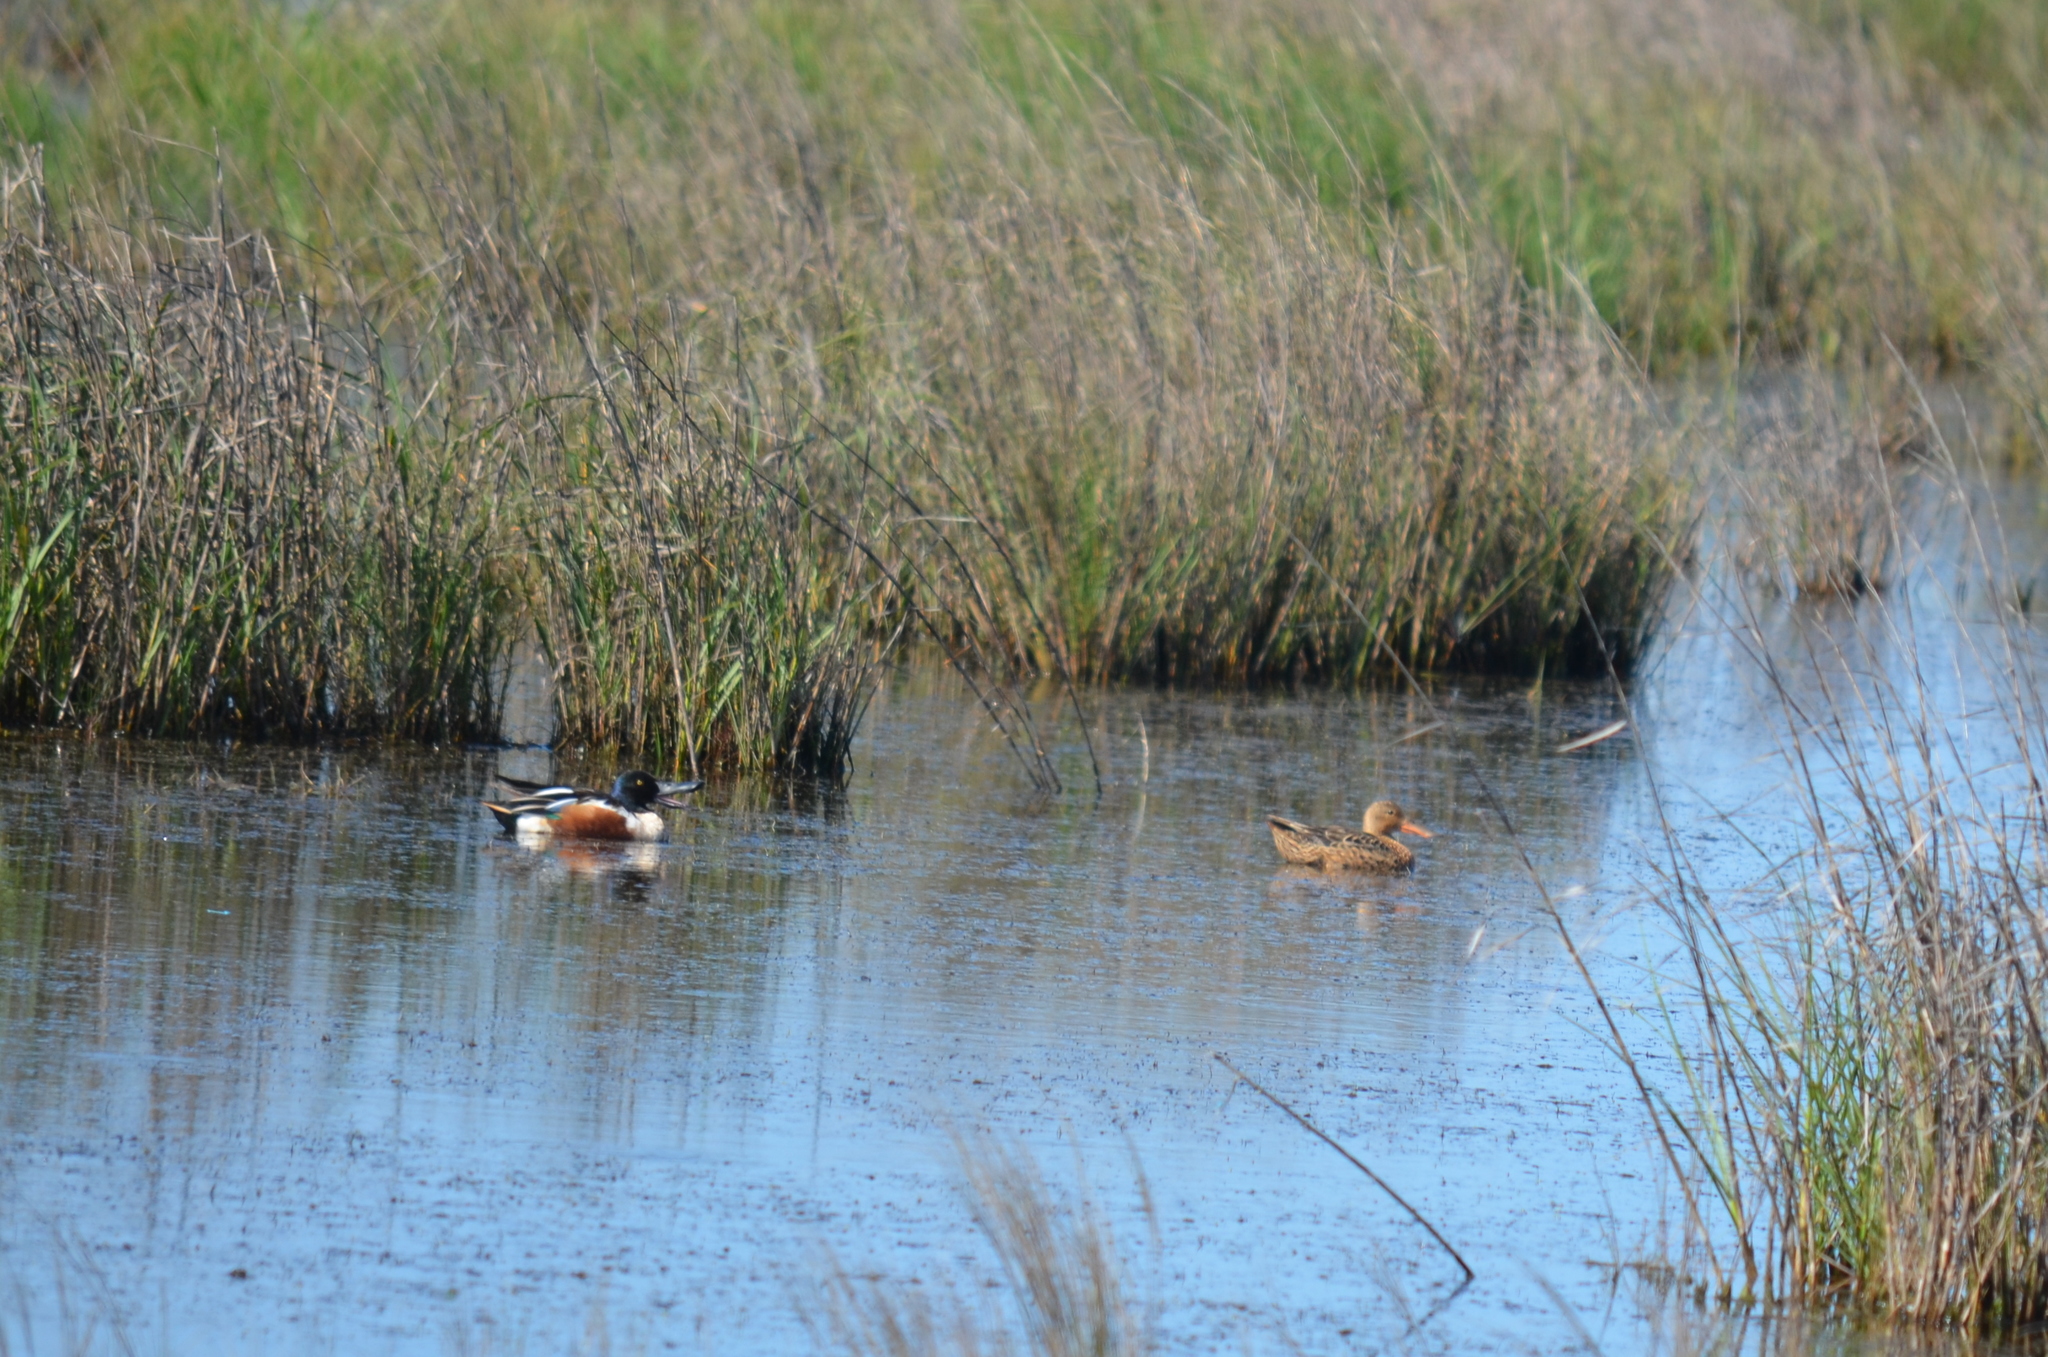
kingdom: Animalia
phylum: Chordata
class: Aves
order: Anseriformes
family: Anatidae
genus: Spatula
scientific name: Spatula clypeata
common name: Northern shoveler
